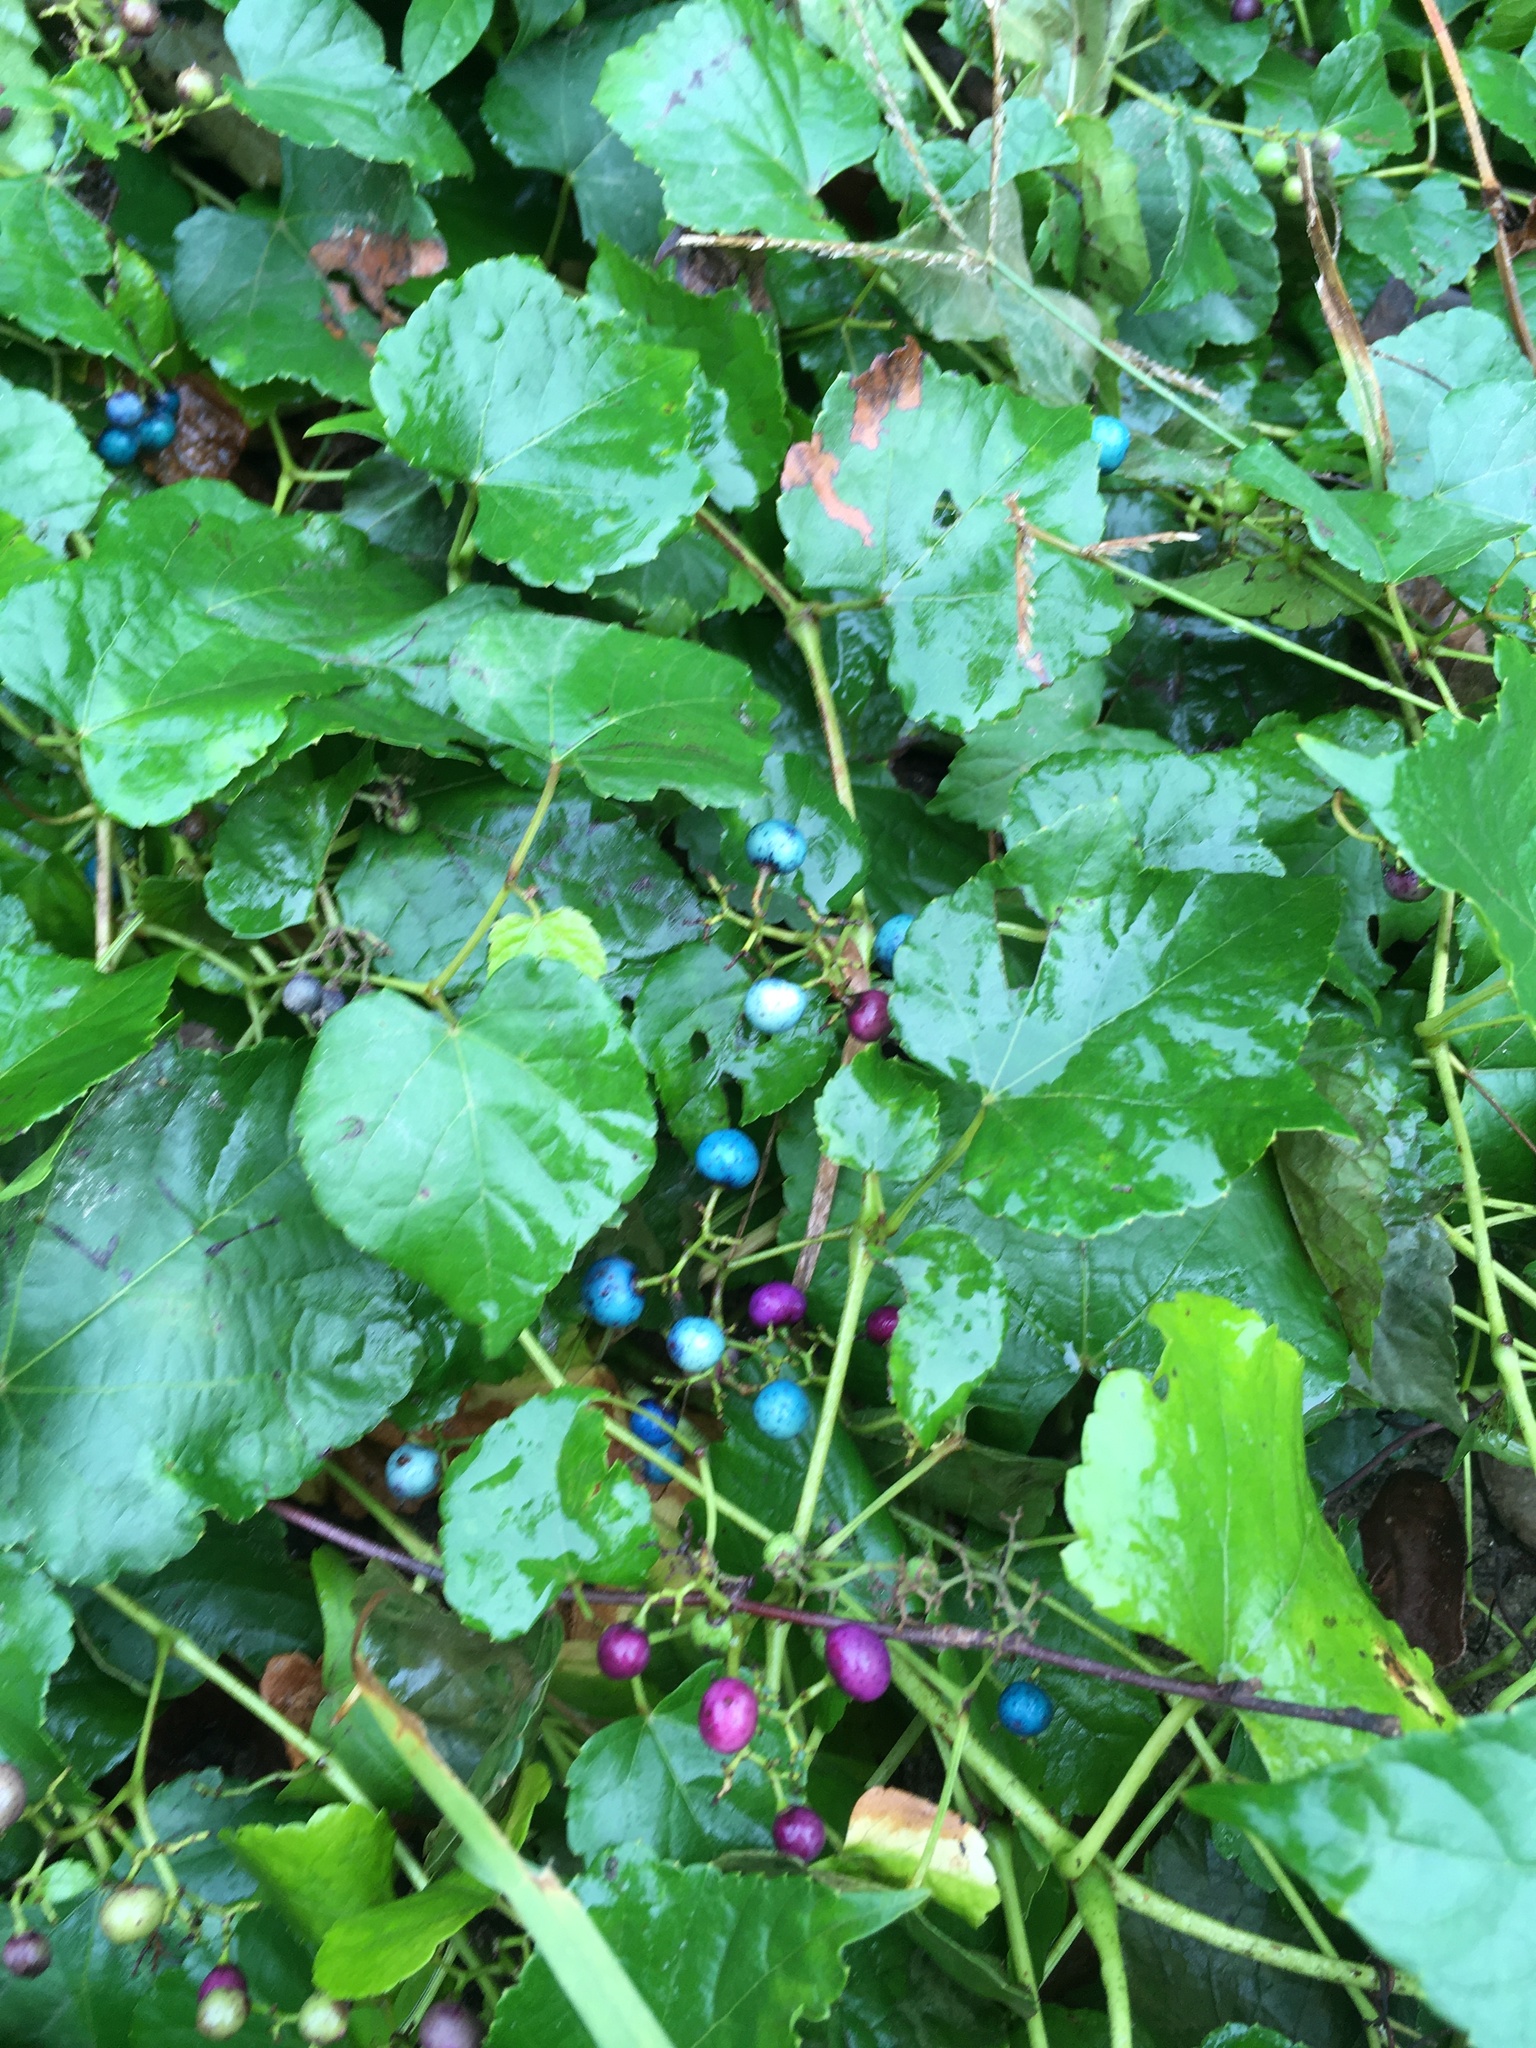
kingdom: Plantae
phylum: Tracheophyta
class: Magnoliopsida
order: Vitales
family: Vitaceae
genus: Ampelopsis
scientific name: Ampelopsis glandulosa
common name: Amur peppervine
